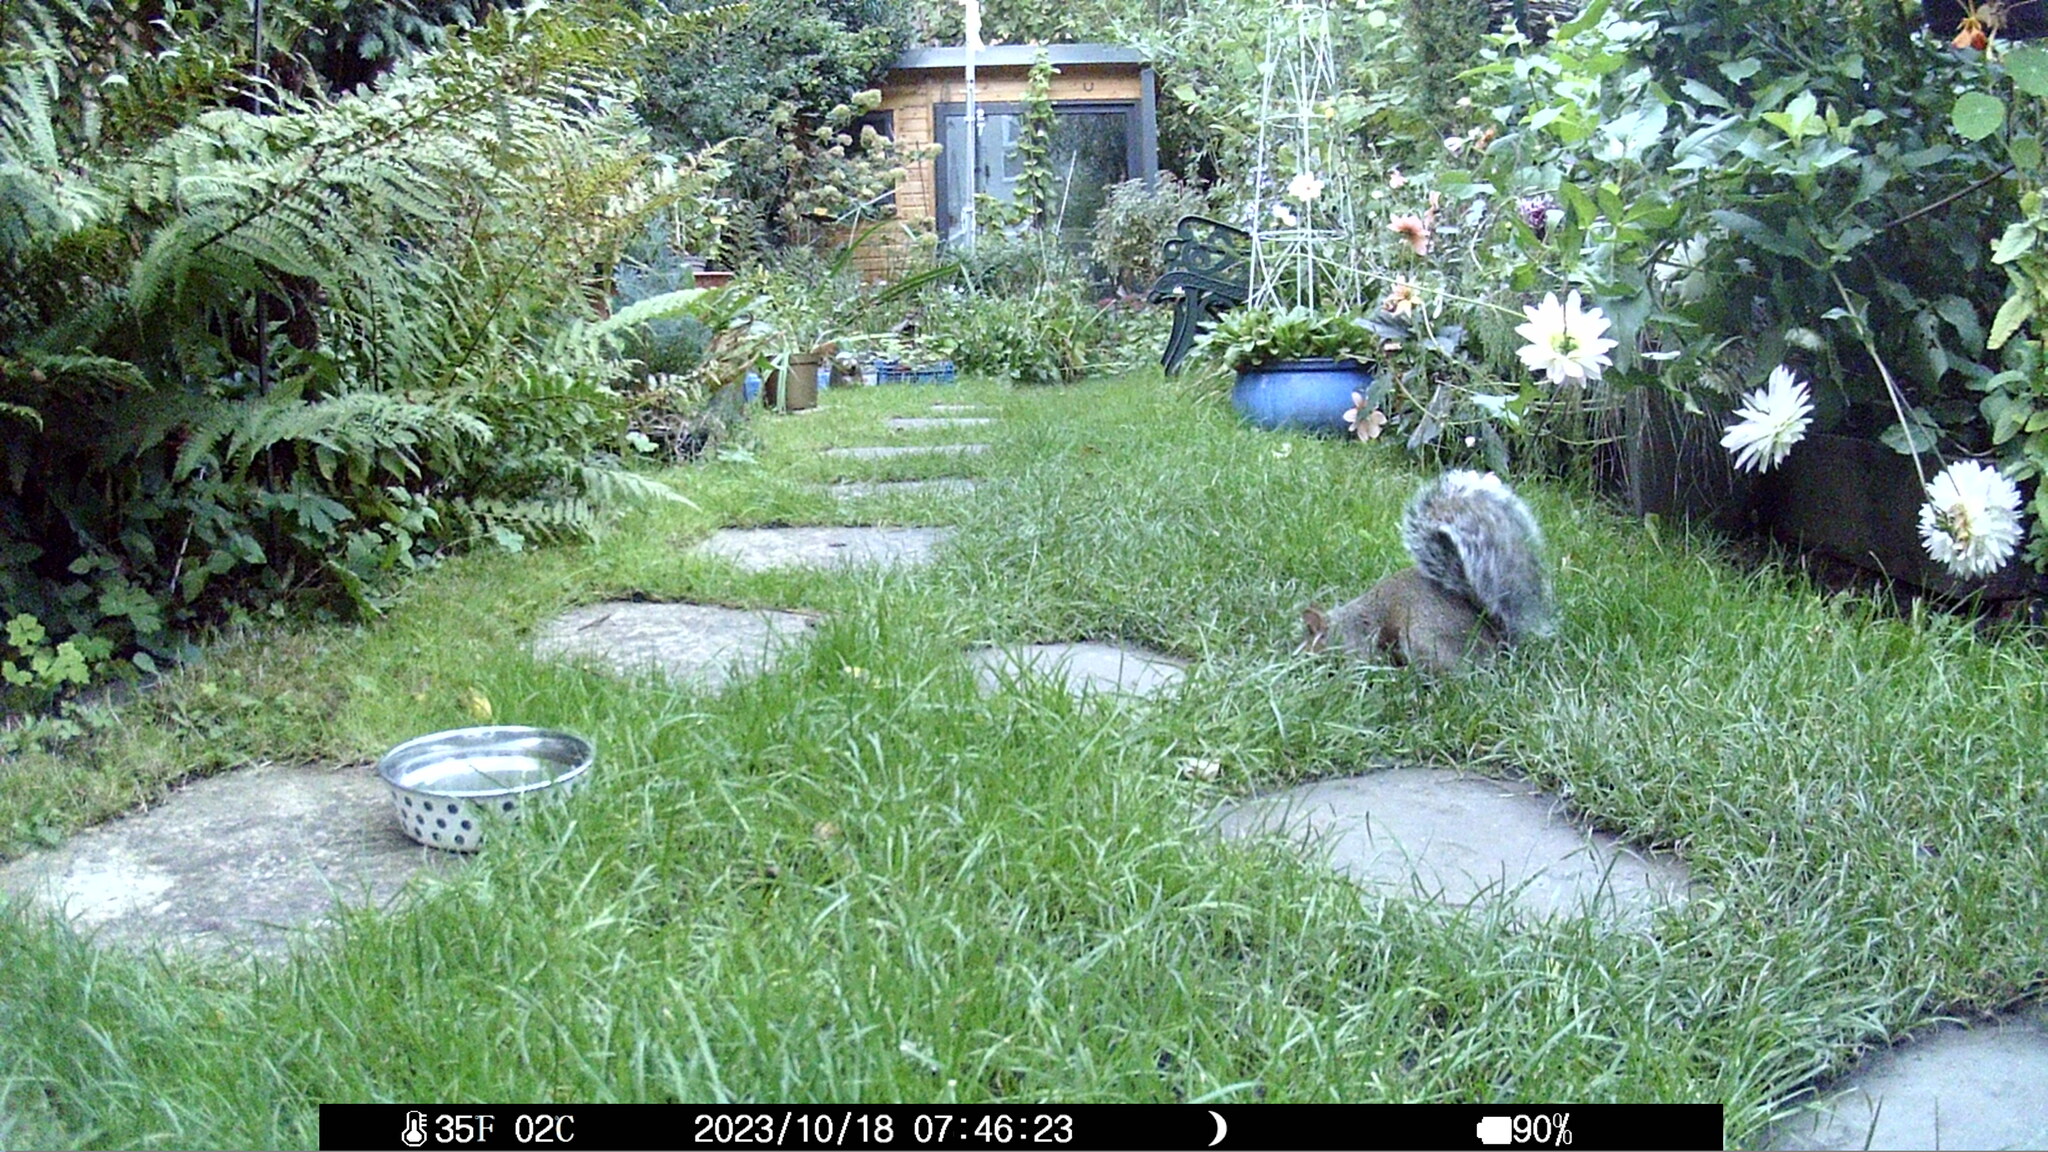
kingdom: Animalia
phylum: Chordata
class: Mammalia
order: Rodentia
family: Sciuridae
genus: Sciurus
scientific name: Sciurus carolinensis
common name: Eastern gray squirrel
